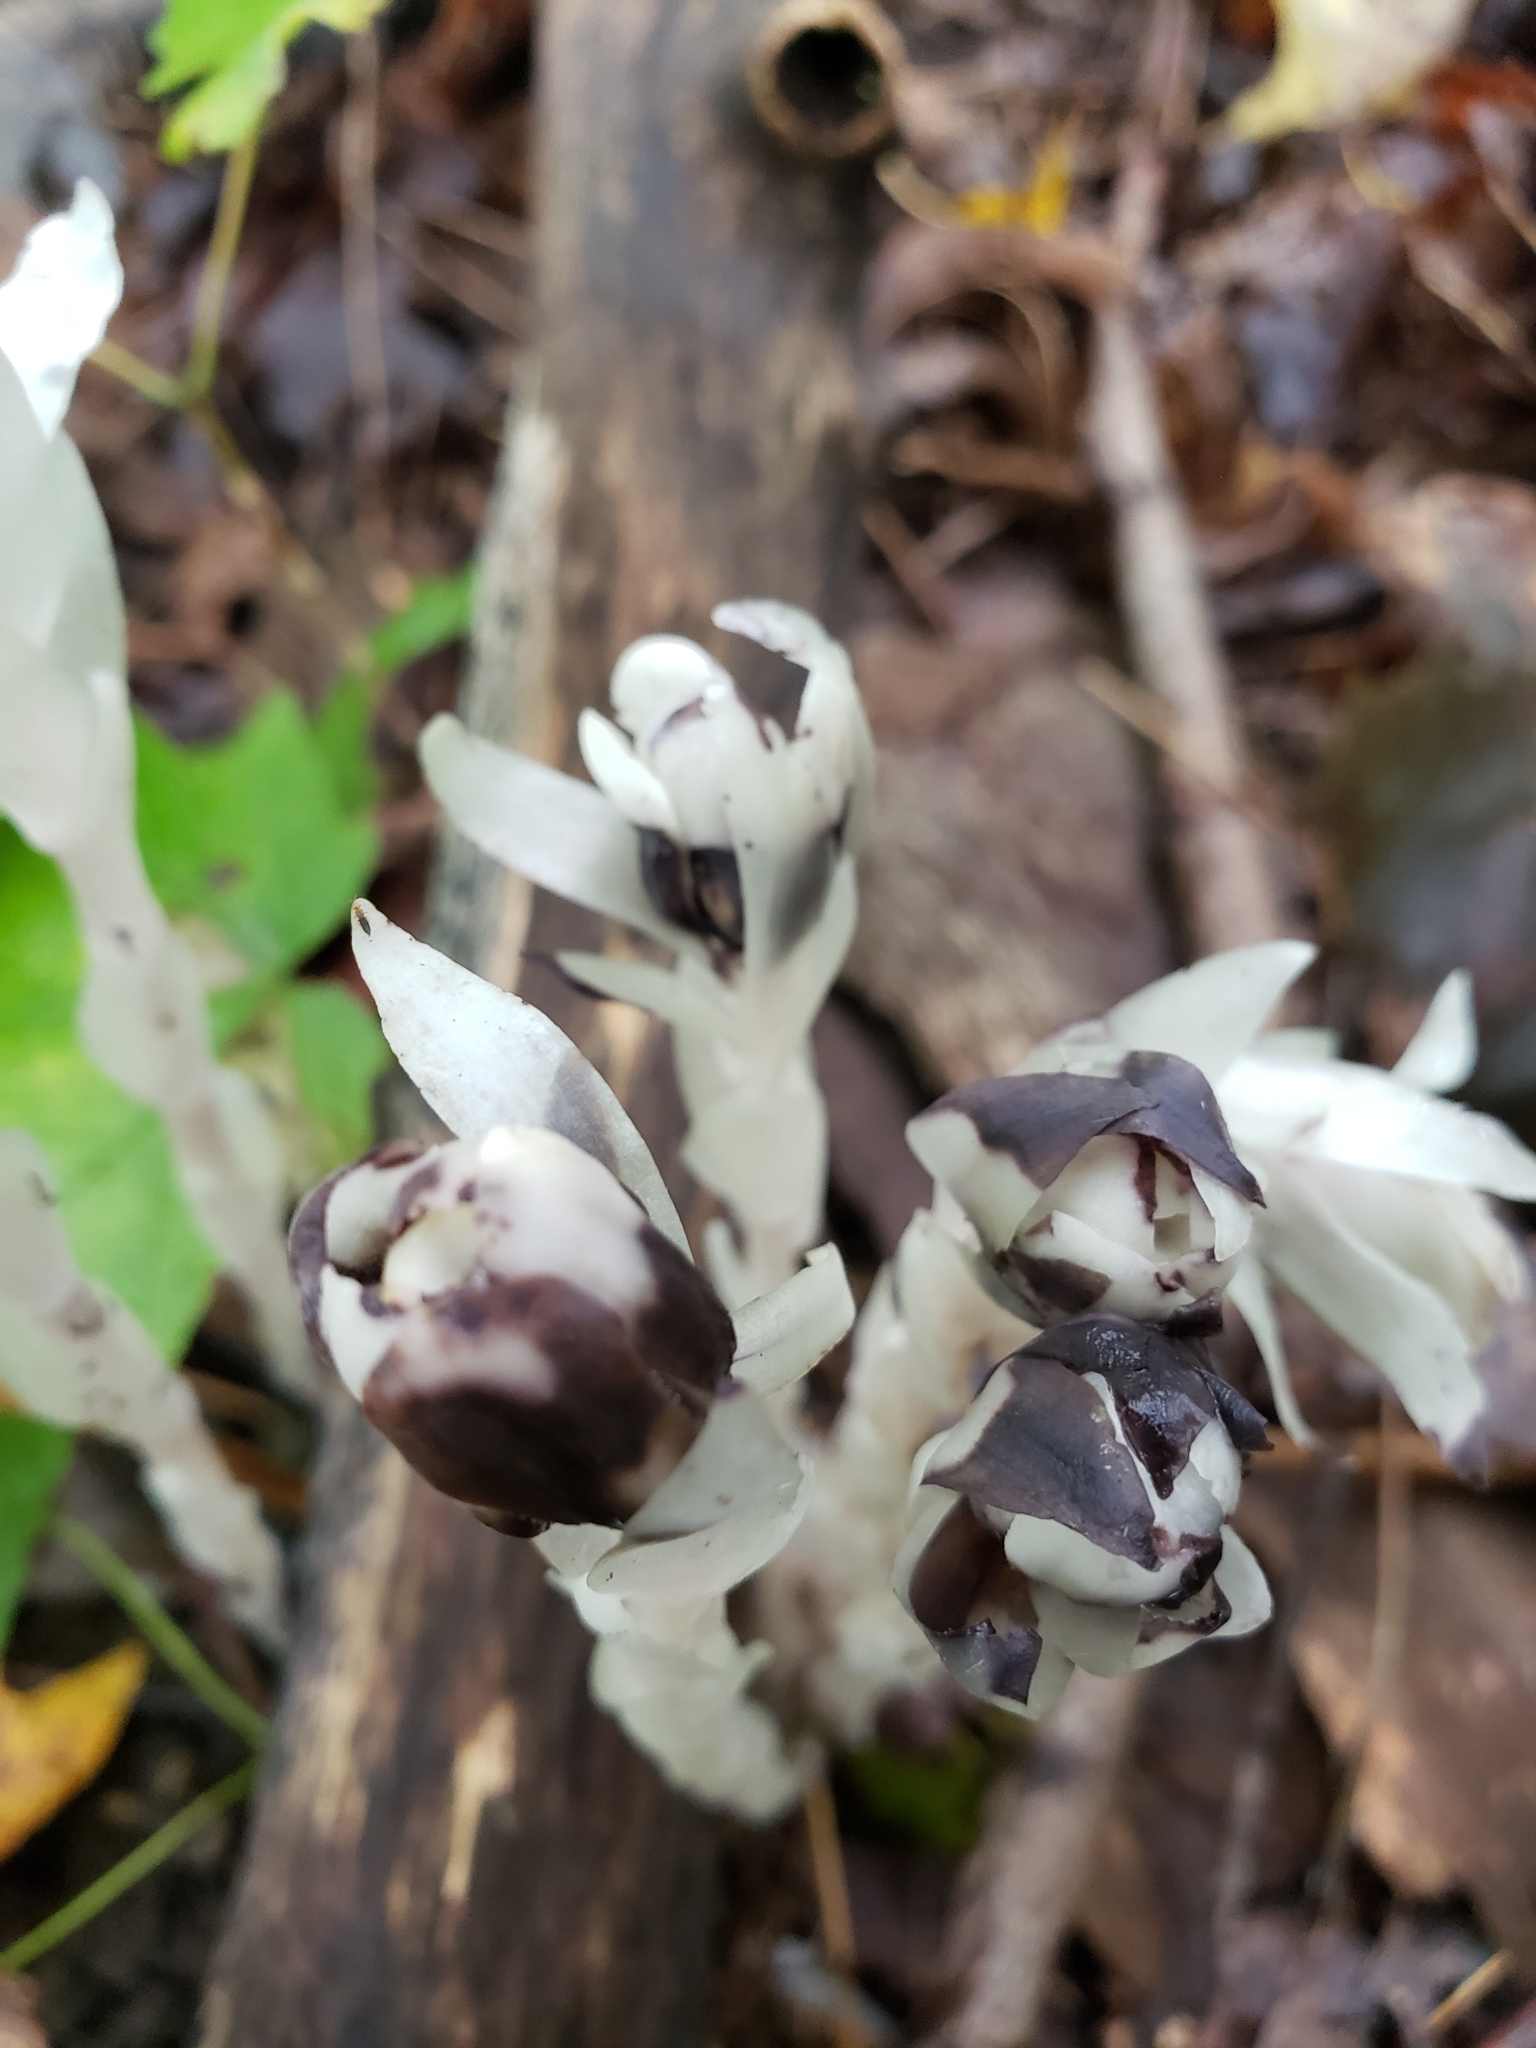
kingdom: Plantae
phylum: Tracheophyta
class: Magnoliopsida
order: Ericales
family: Ericaceae
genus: Monotropa
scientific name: Monotropa uniflora
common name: Convulsion root
